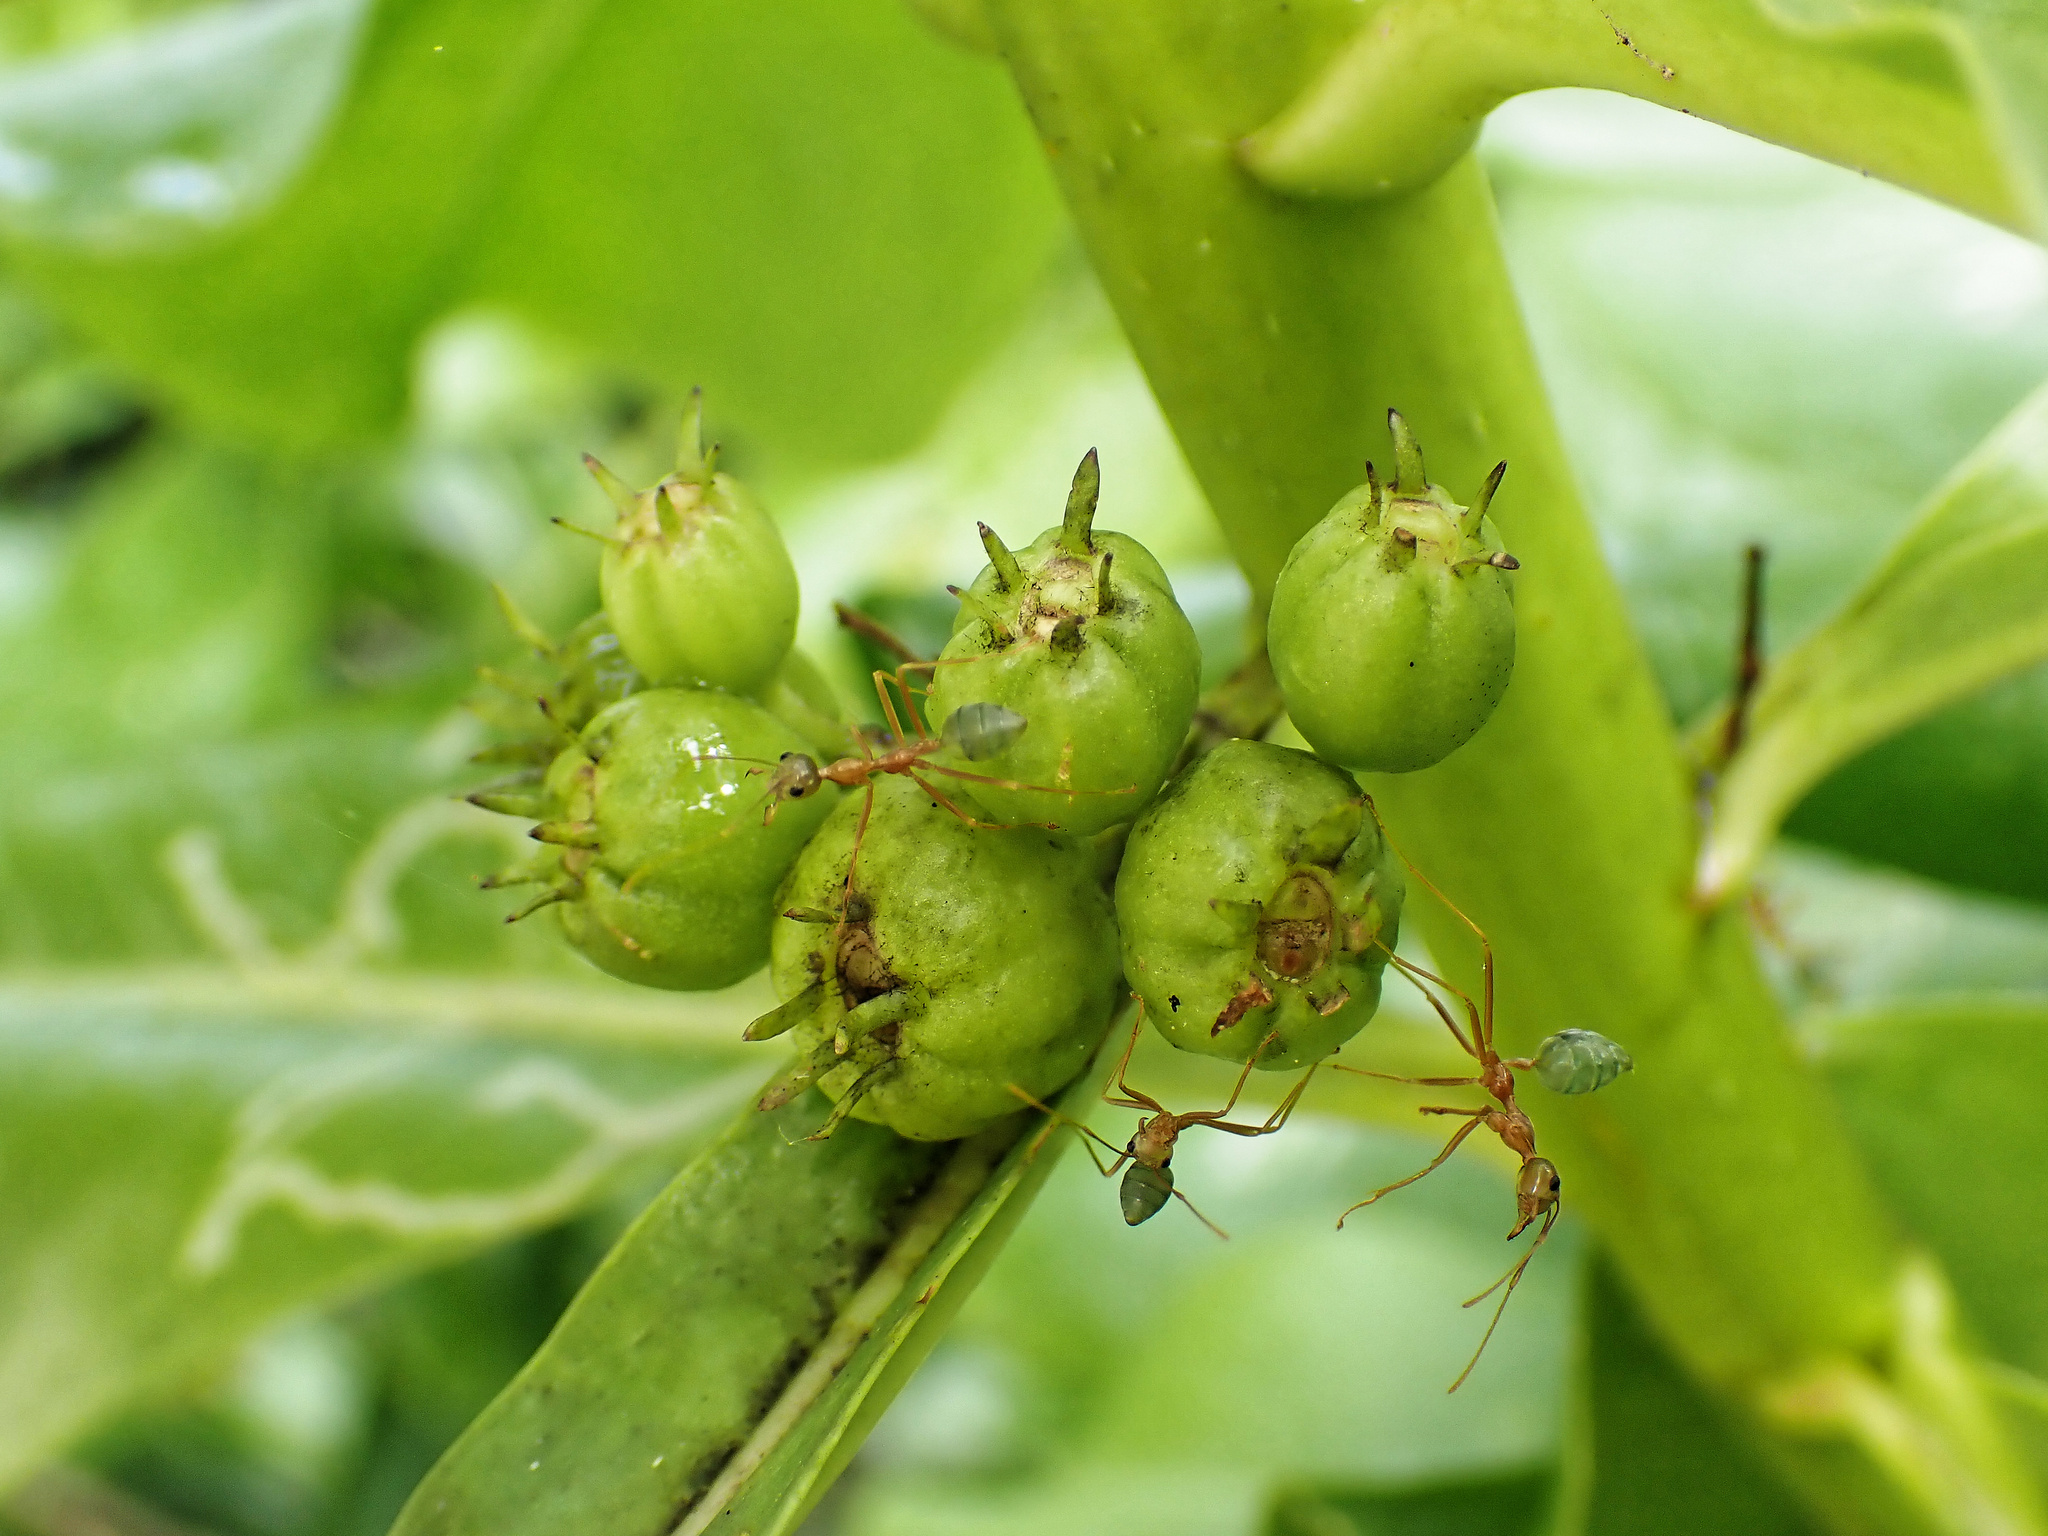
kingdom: Animalia
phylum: Arthropoda
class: Insecta
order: Hymenoptera
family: Formicidae
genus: Oecophylla
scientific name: Oecophylla smaragdina
